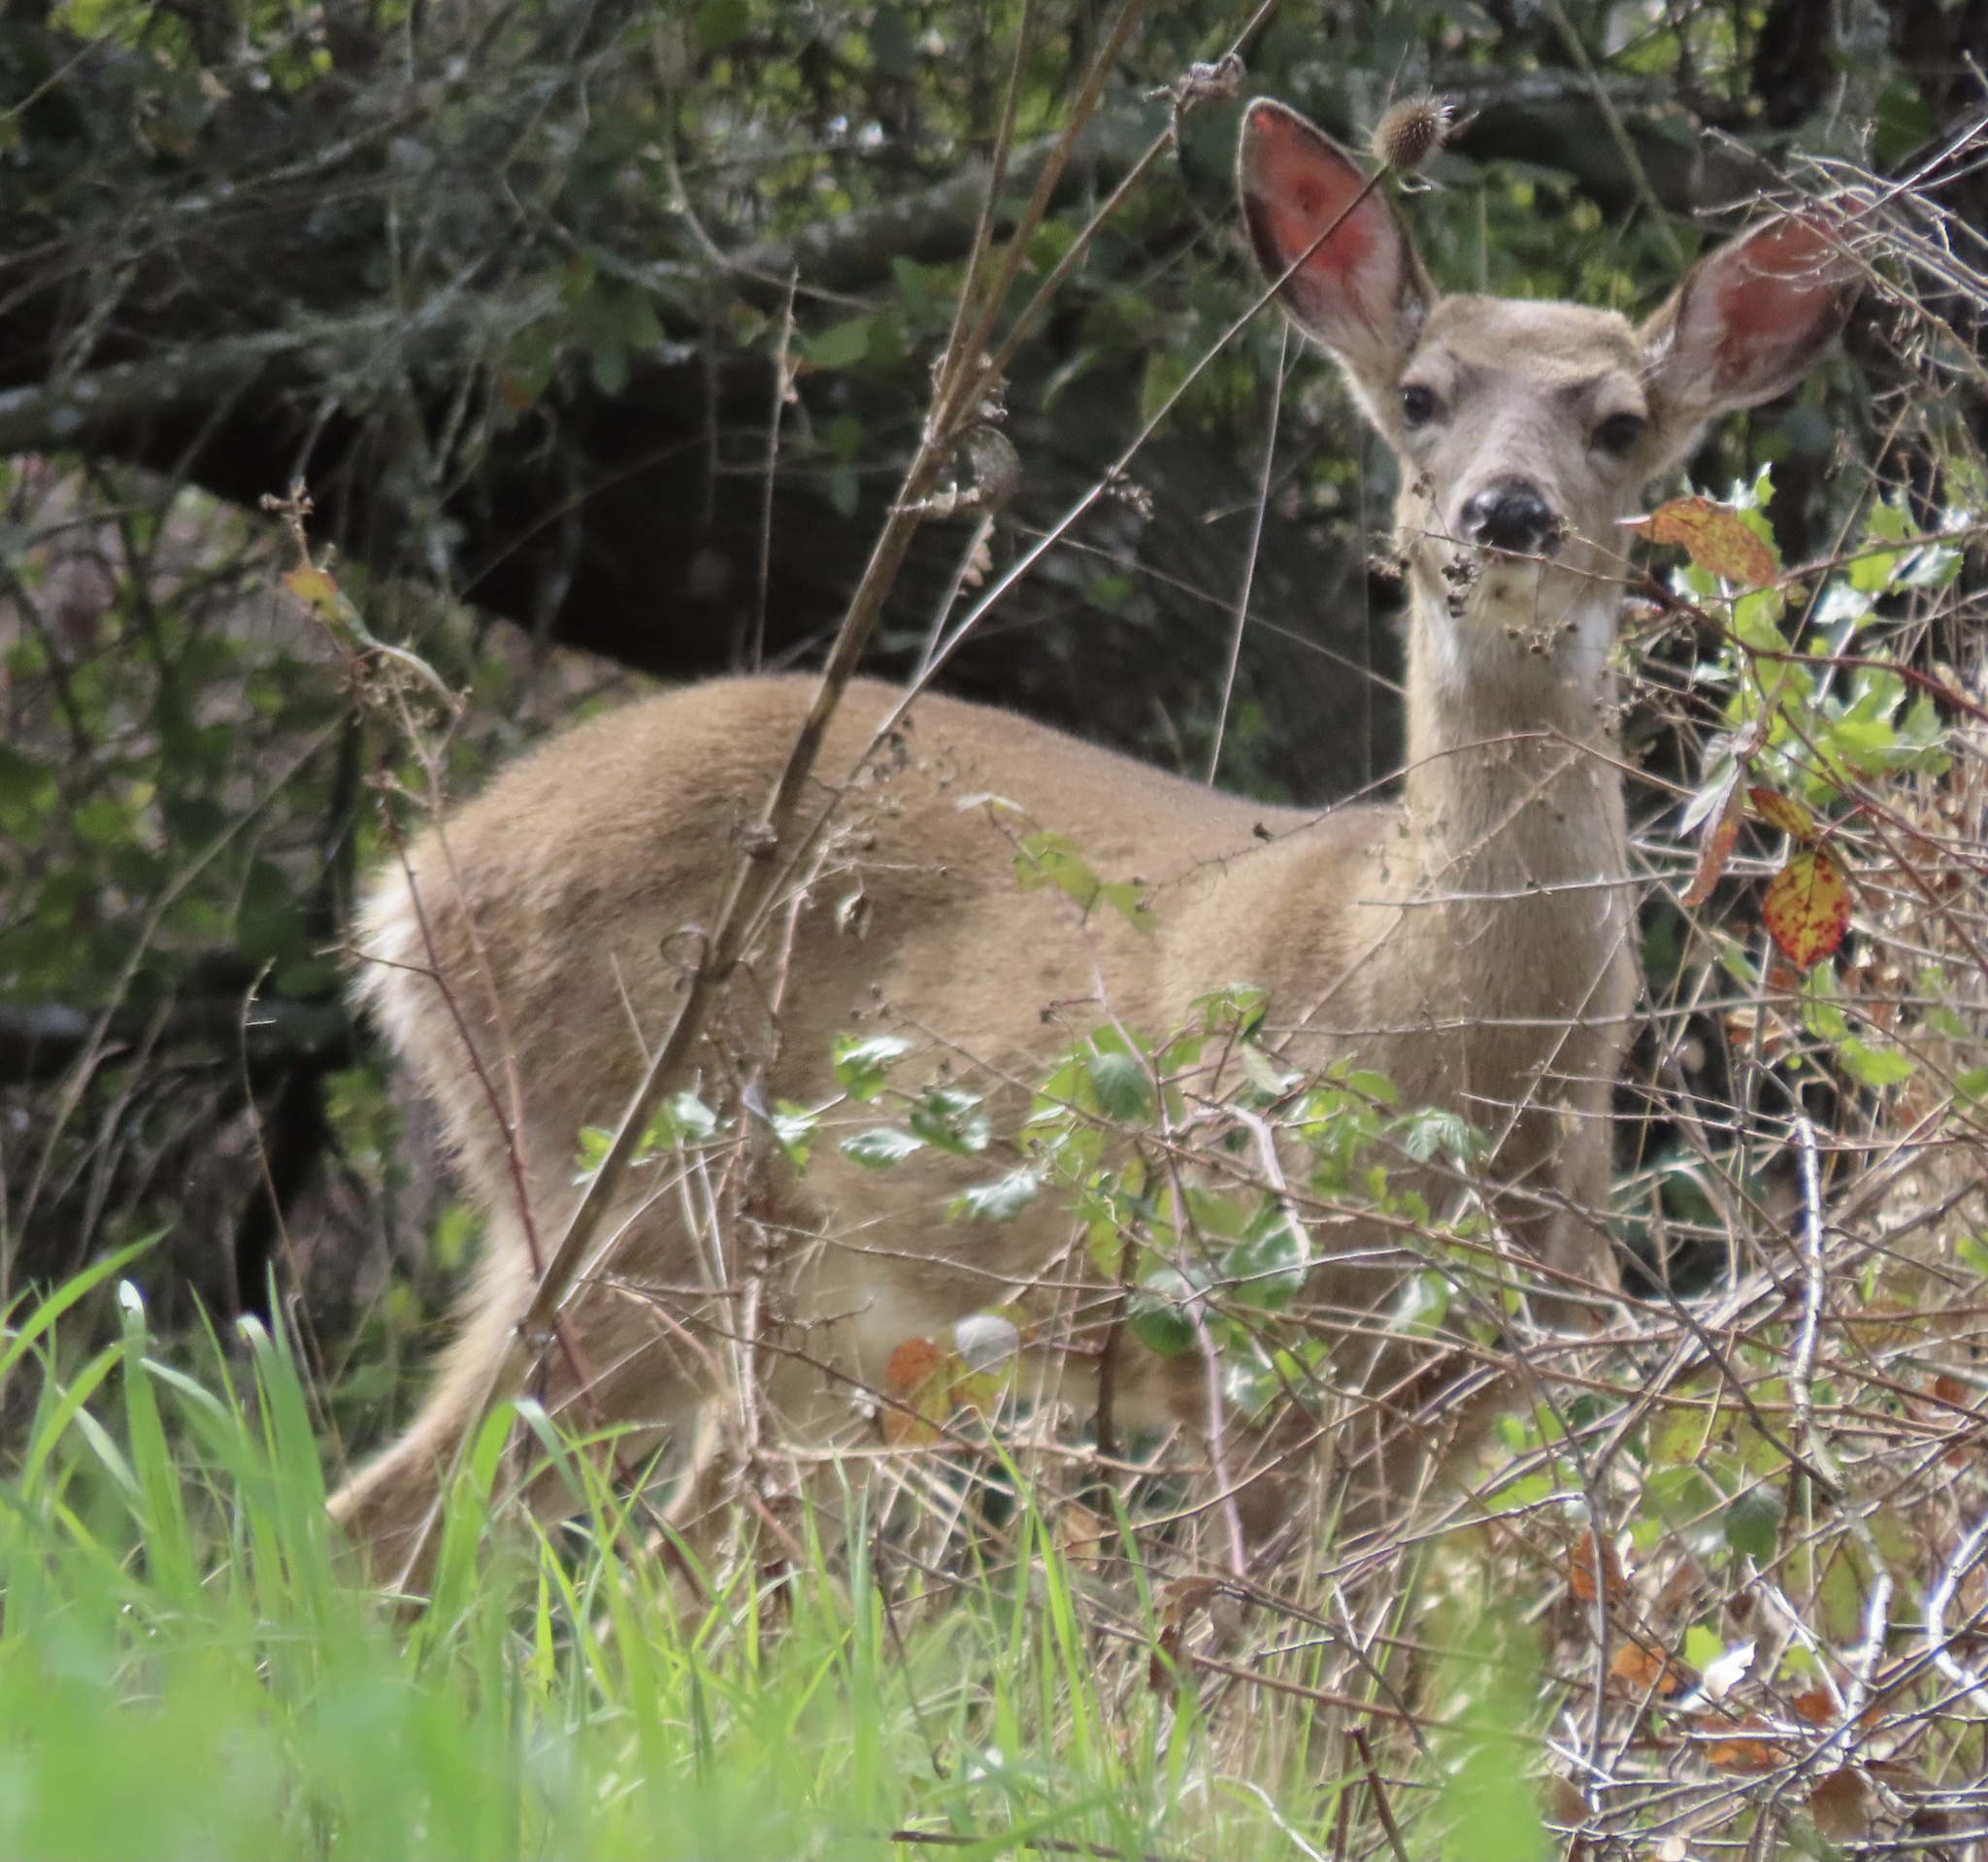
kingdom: Animalia
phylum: Chordata
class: Mammalia
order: Artiodactyla
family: Cervidae
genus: Odocoileus
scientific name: Odocoileus hemionus
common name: Mule deer
